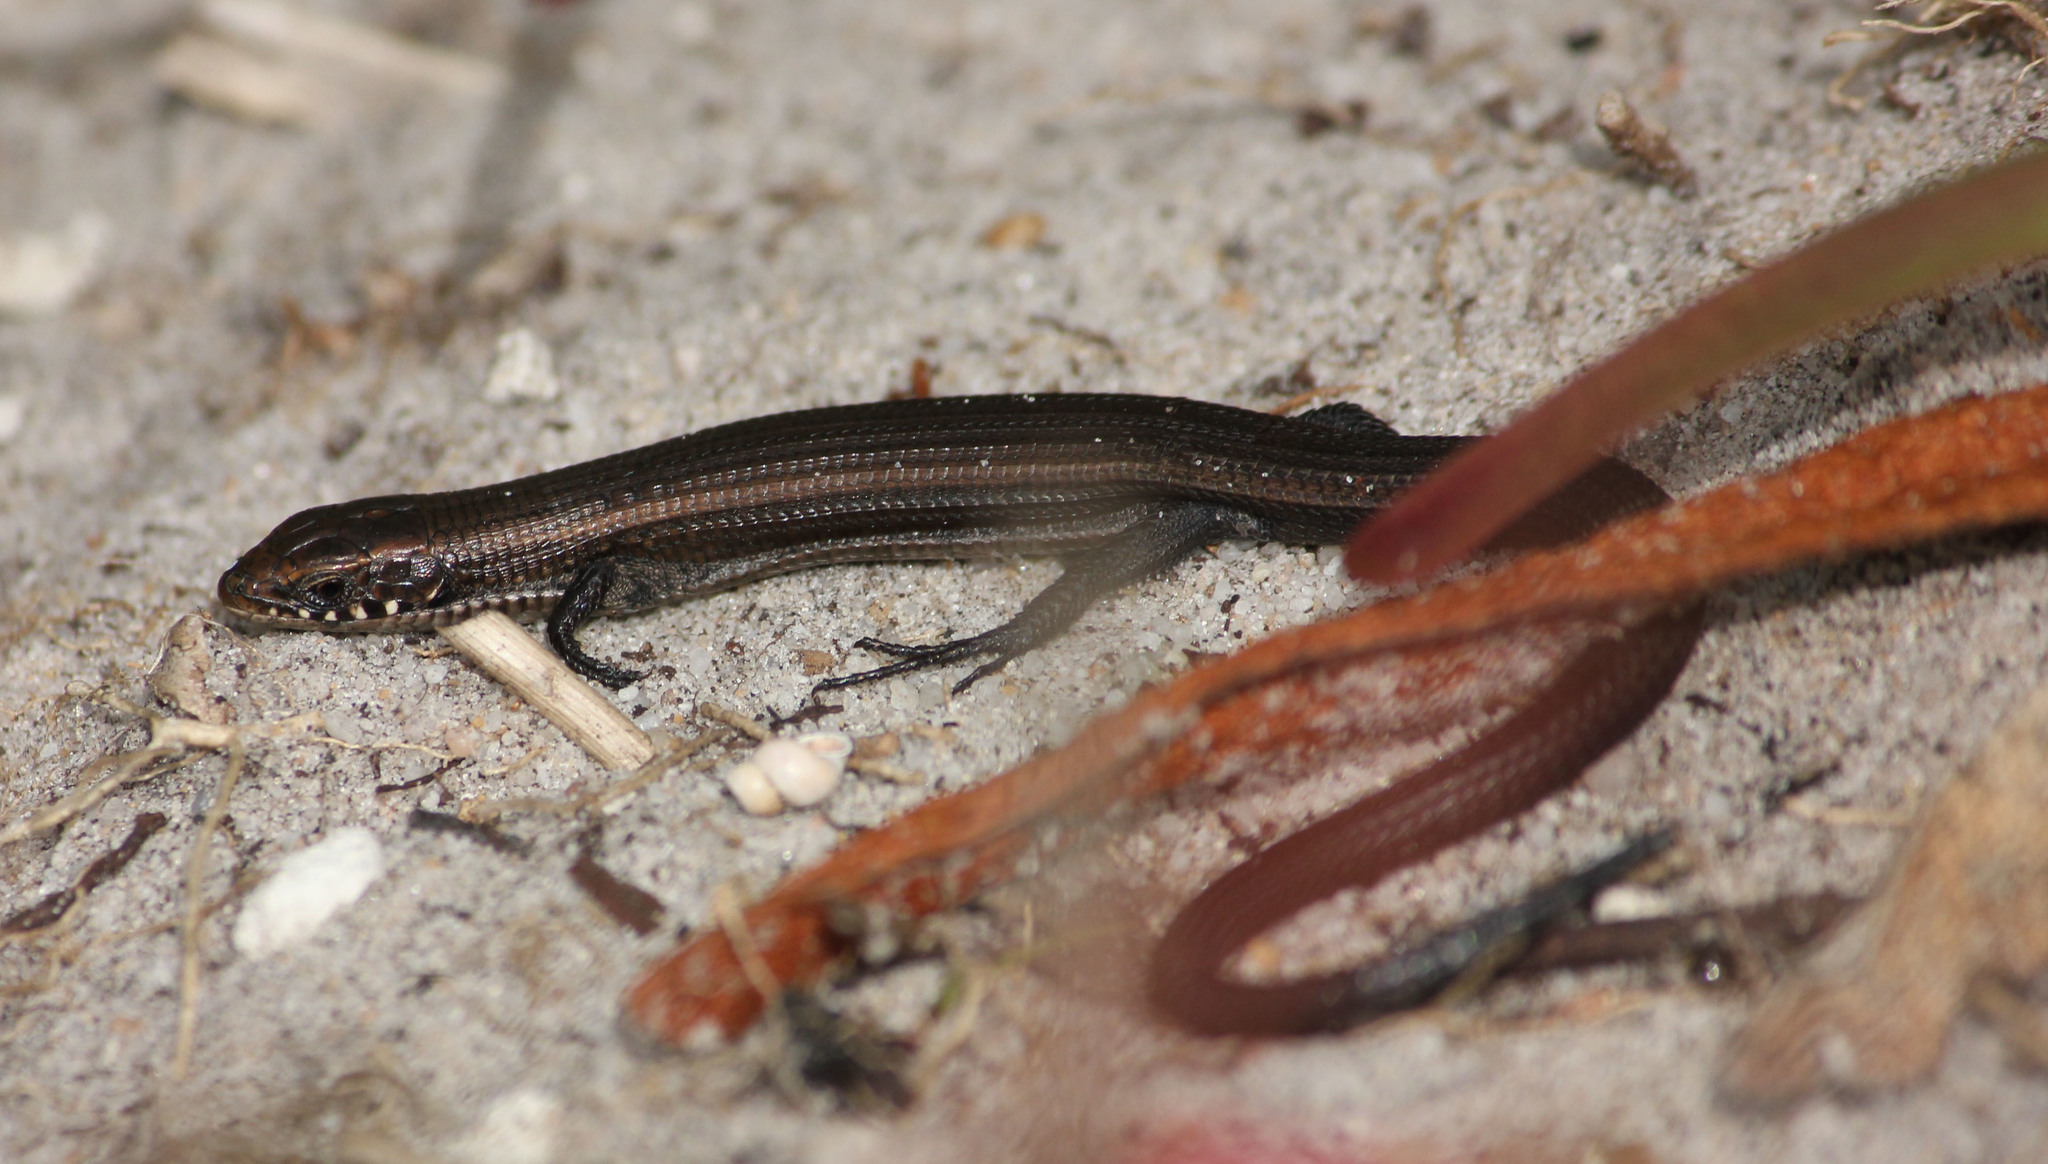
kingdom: Animalia
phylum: Chordata
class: Squamata
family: Gerrhosauridae
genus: Tetradactylus
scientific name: Tetradactylus seps
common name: Five-toed whip lizard
